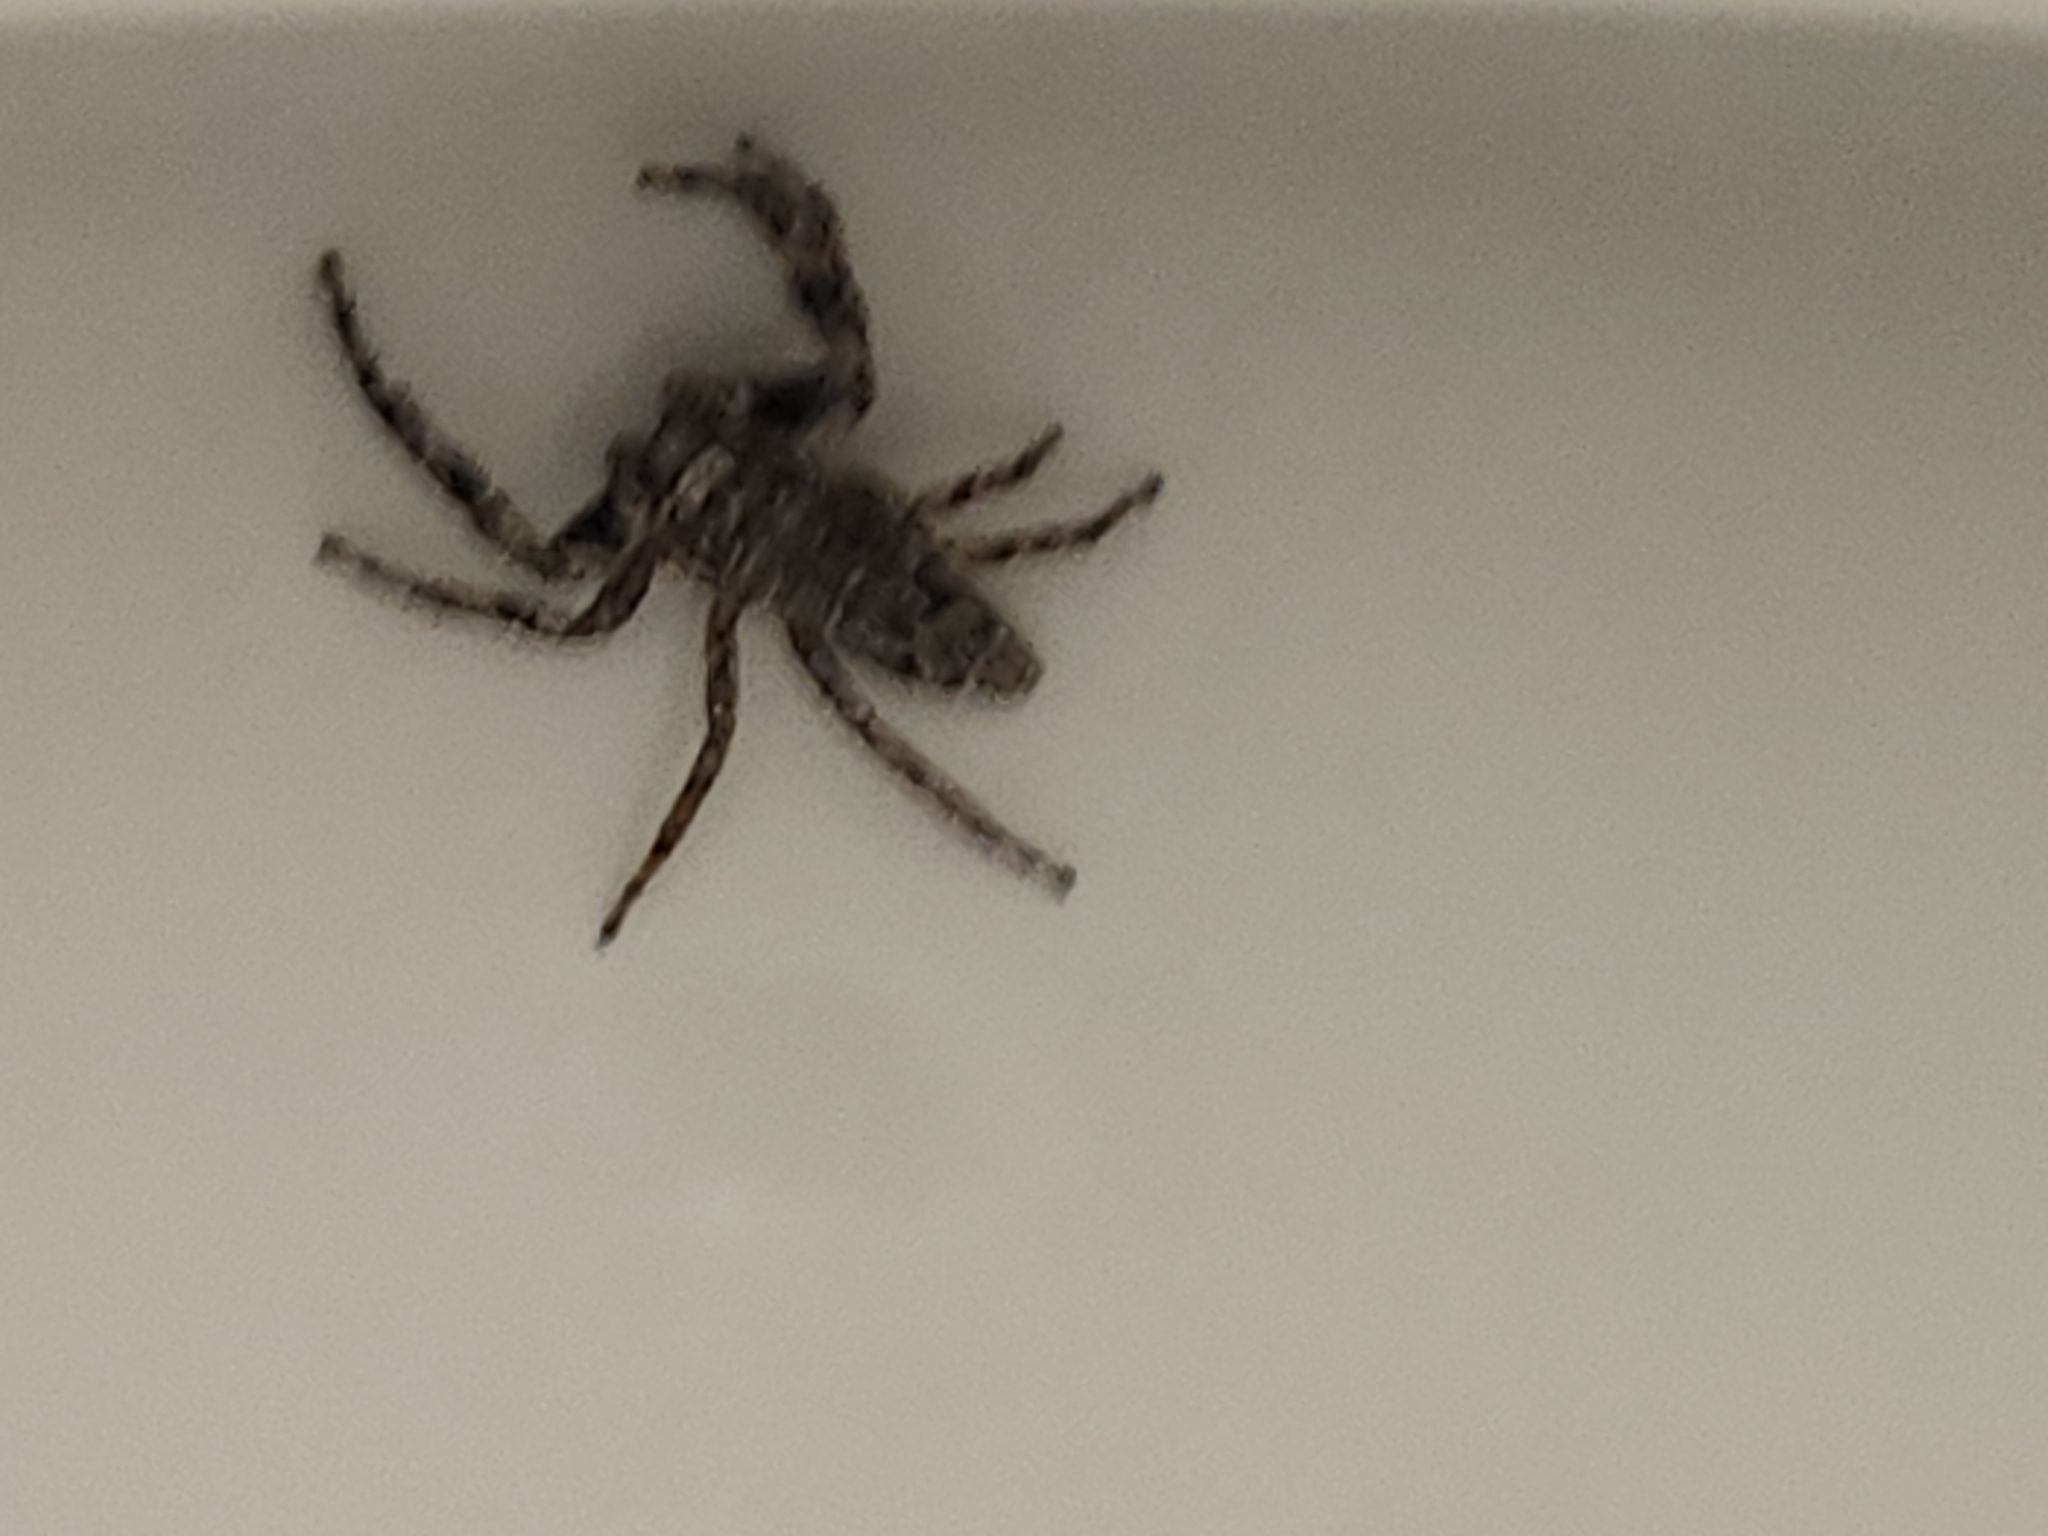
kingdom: Animalia
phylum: Arthropoda
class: Arachnida
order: Araneae
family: Salticidae
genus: Platycryptus
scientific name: Platycryptus undatus
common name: Tan jumping spider
